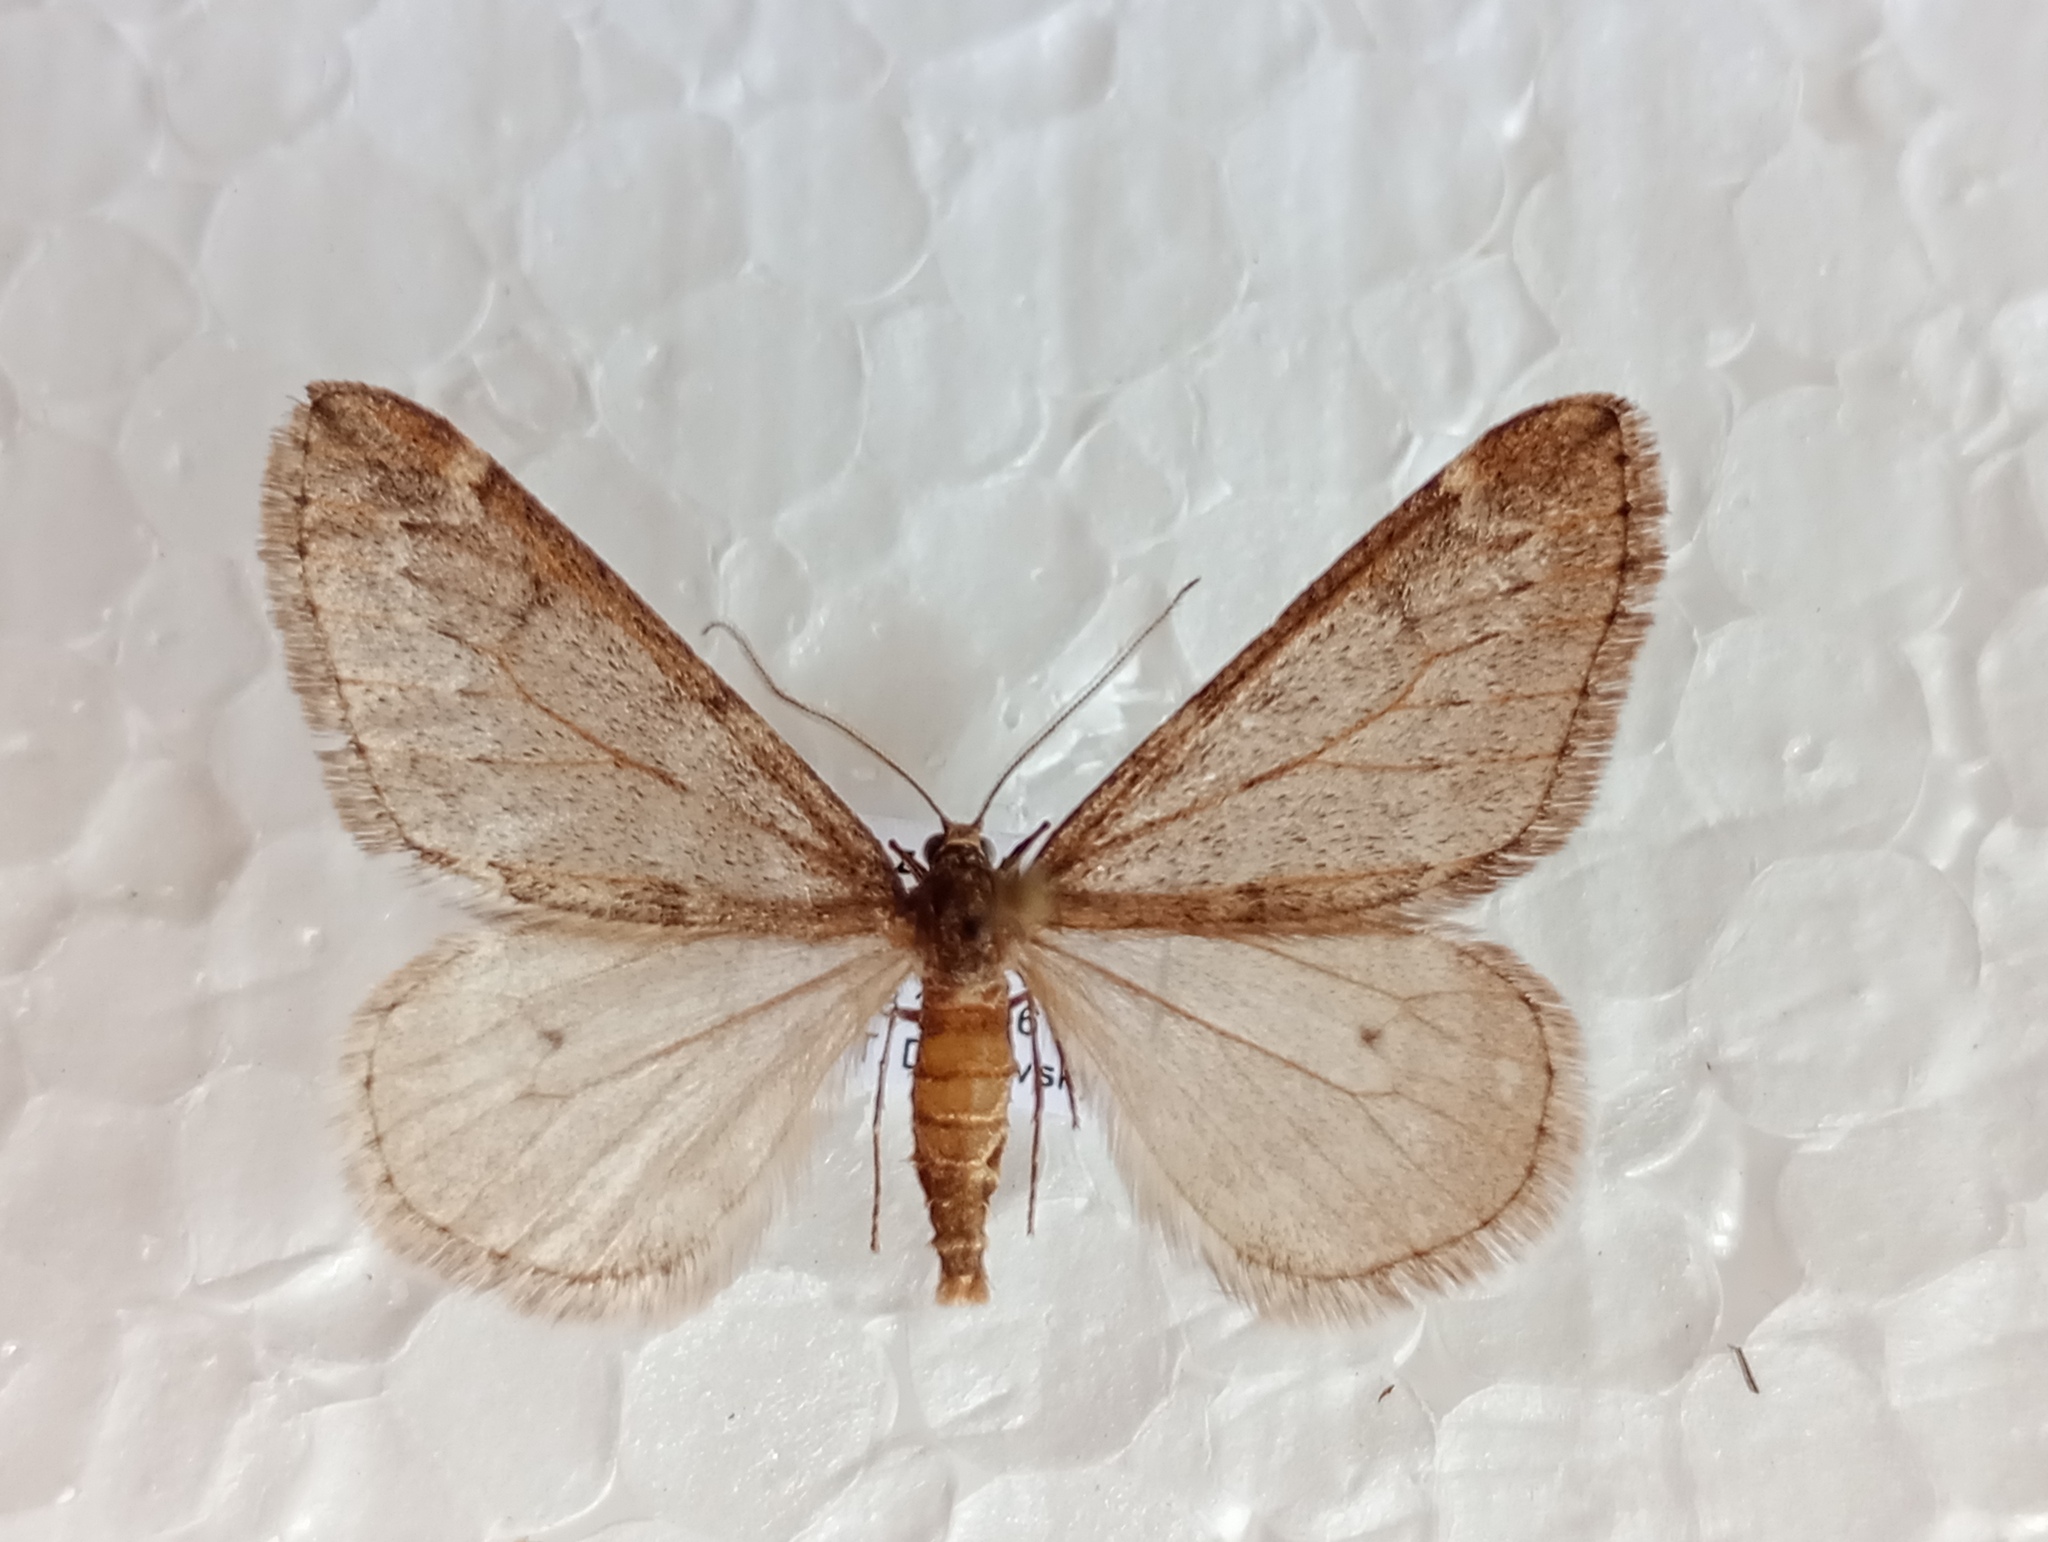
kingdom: Animalia
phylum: Arthropoda
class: Insecta
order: Lepidoptera
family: Geometridae
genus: Alsophila
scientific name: Alsophila aescularia
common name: March moth
